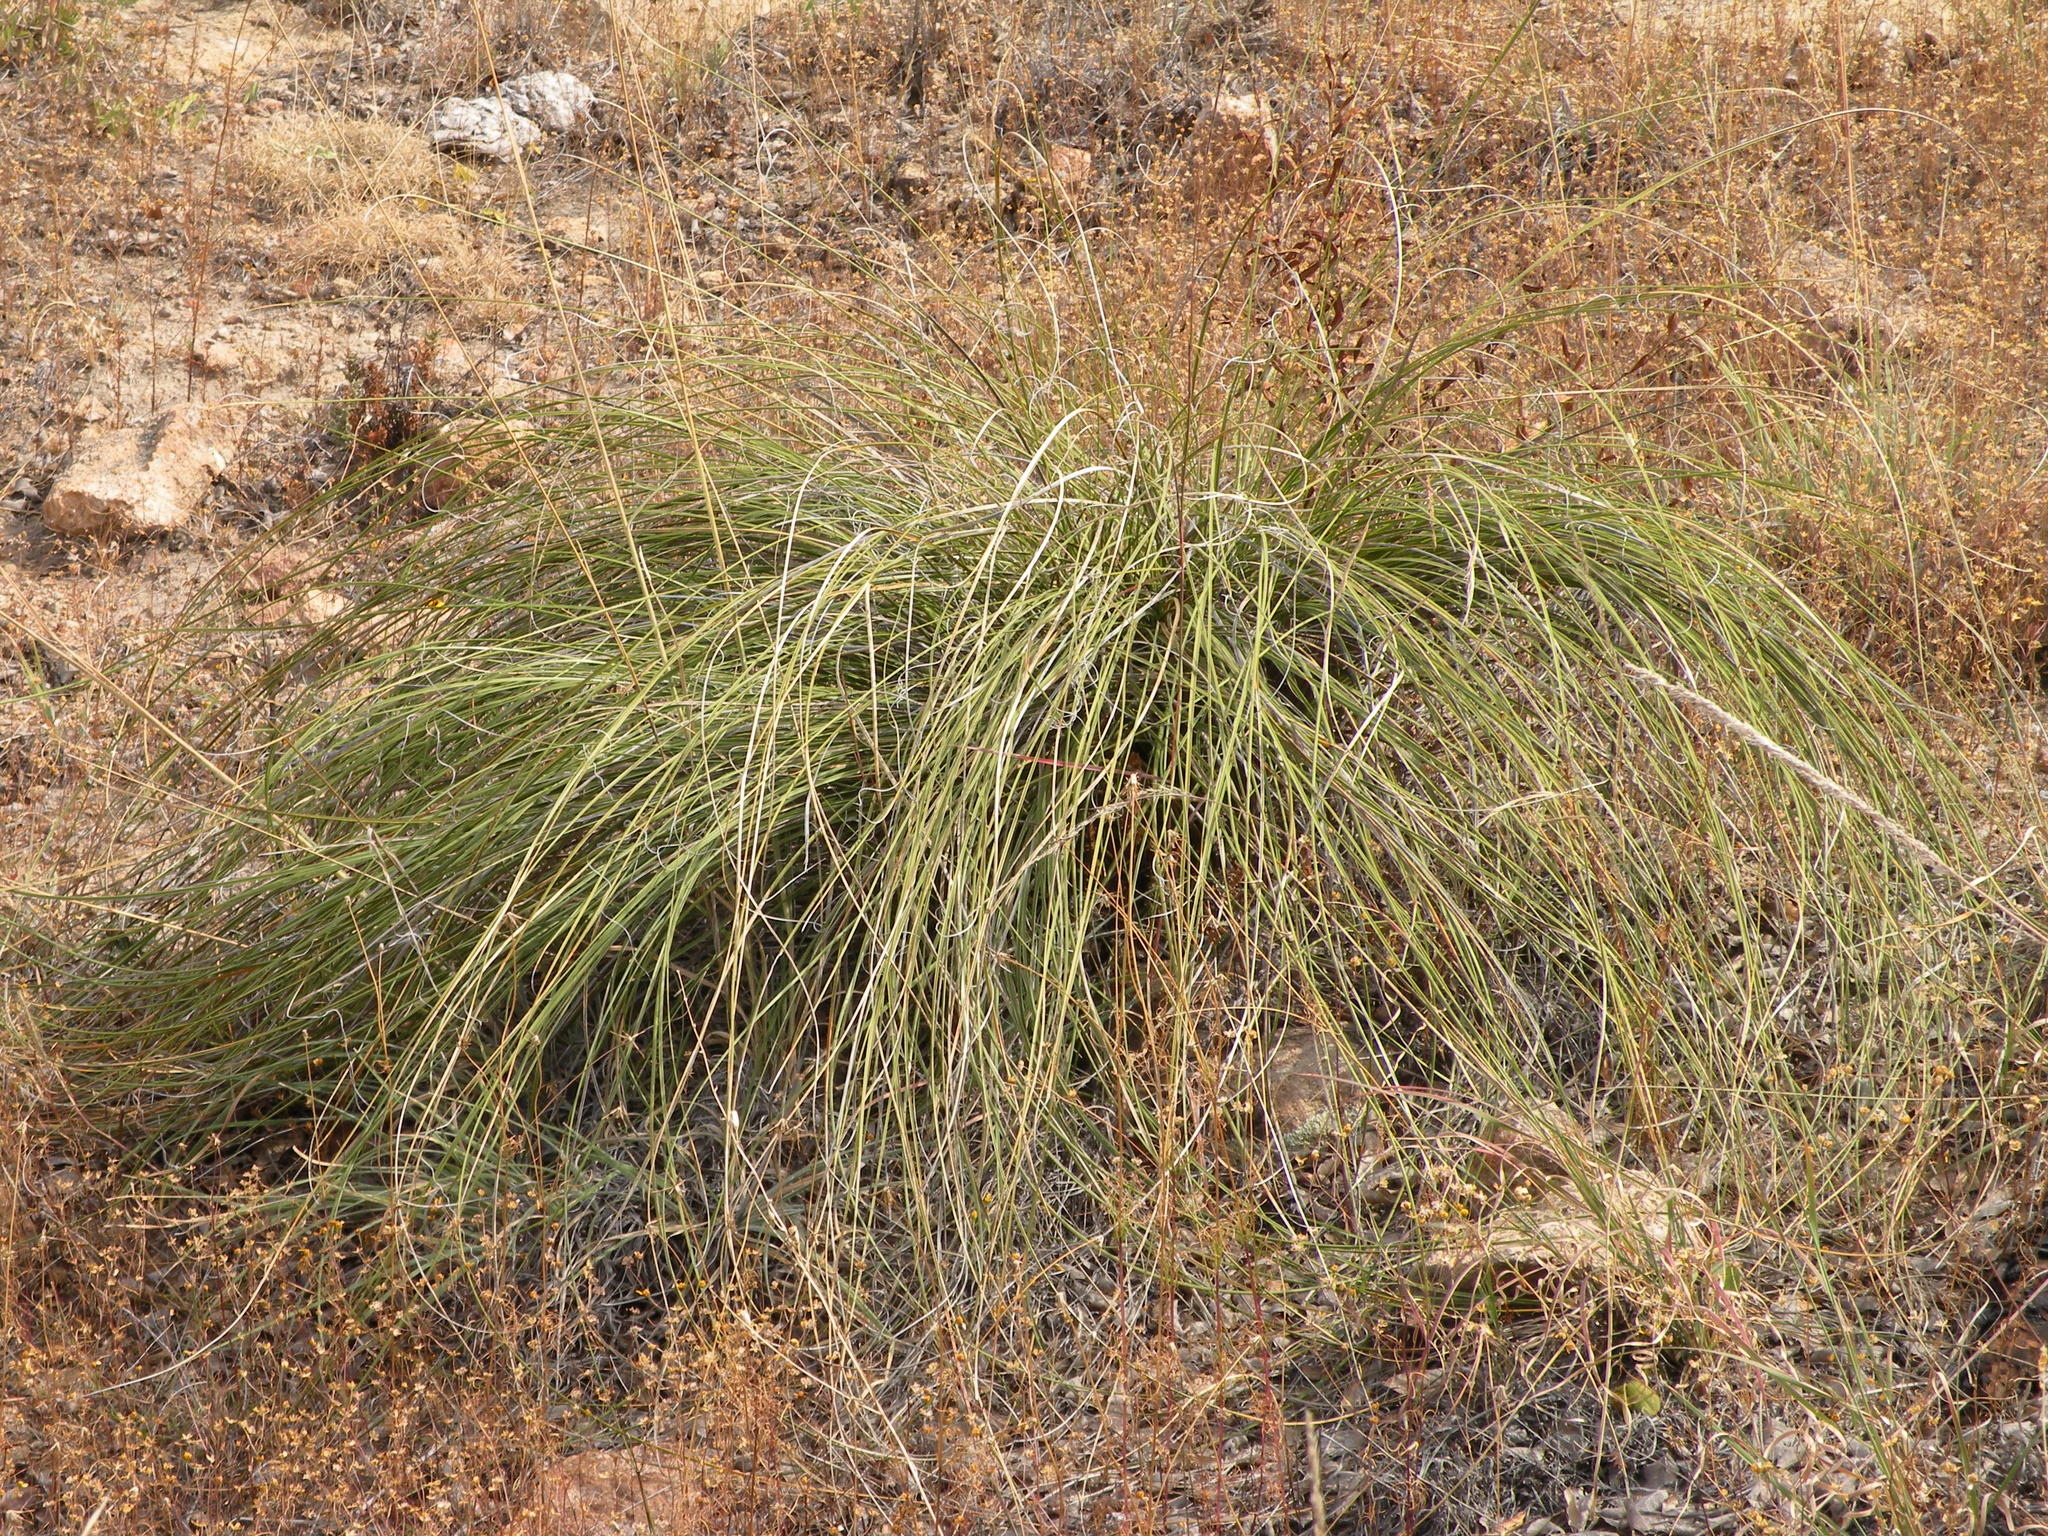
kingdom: Plantae
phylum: Tracheophyta
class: Liliopsida
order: Asparagales
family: Asparagaceae
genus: Nolina
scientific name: Nolina juncea
